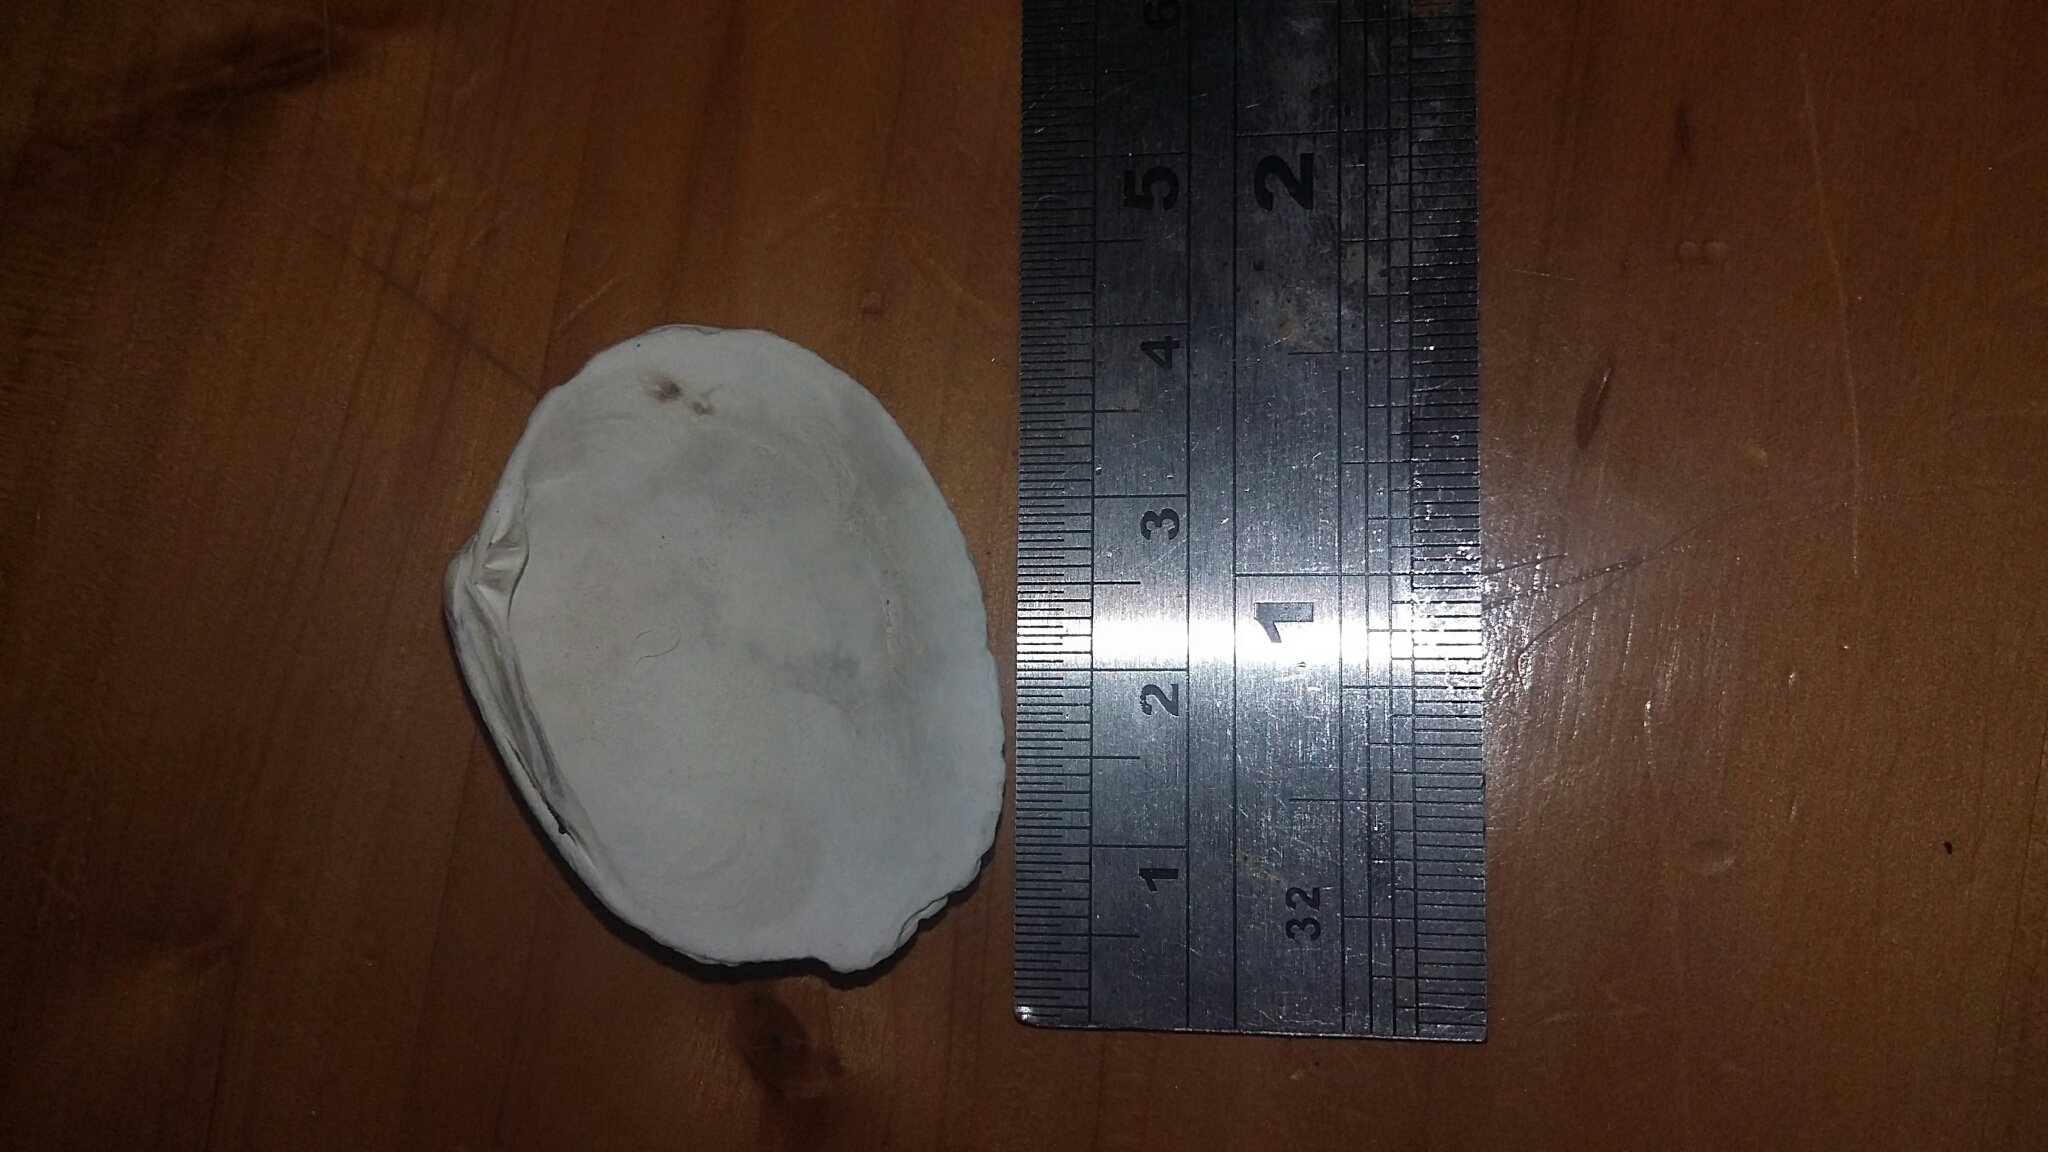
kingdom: Animalia
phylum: Mollusca
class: Bivalvia
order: Venerida
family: Veneridae
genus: Leukoma
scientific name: Leukoma crassicosta
